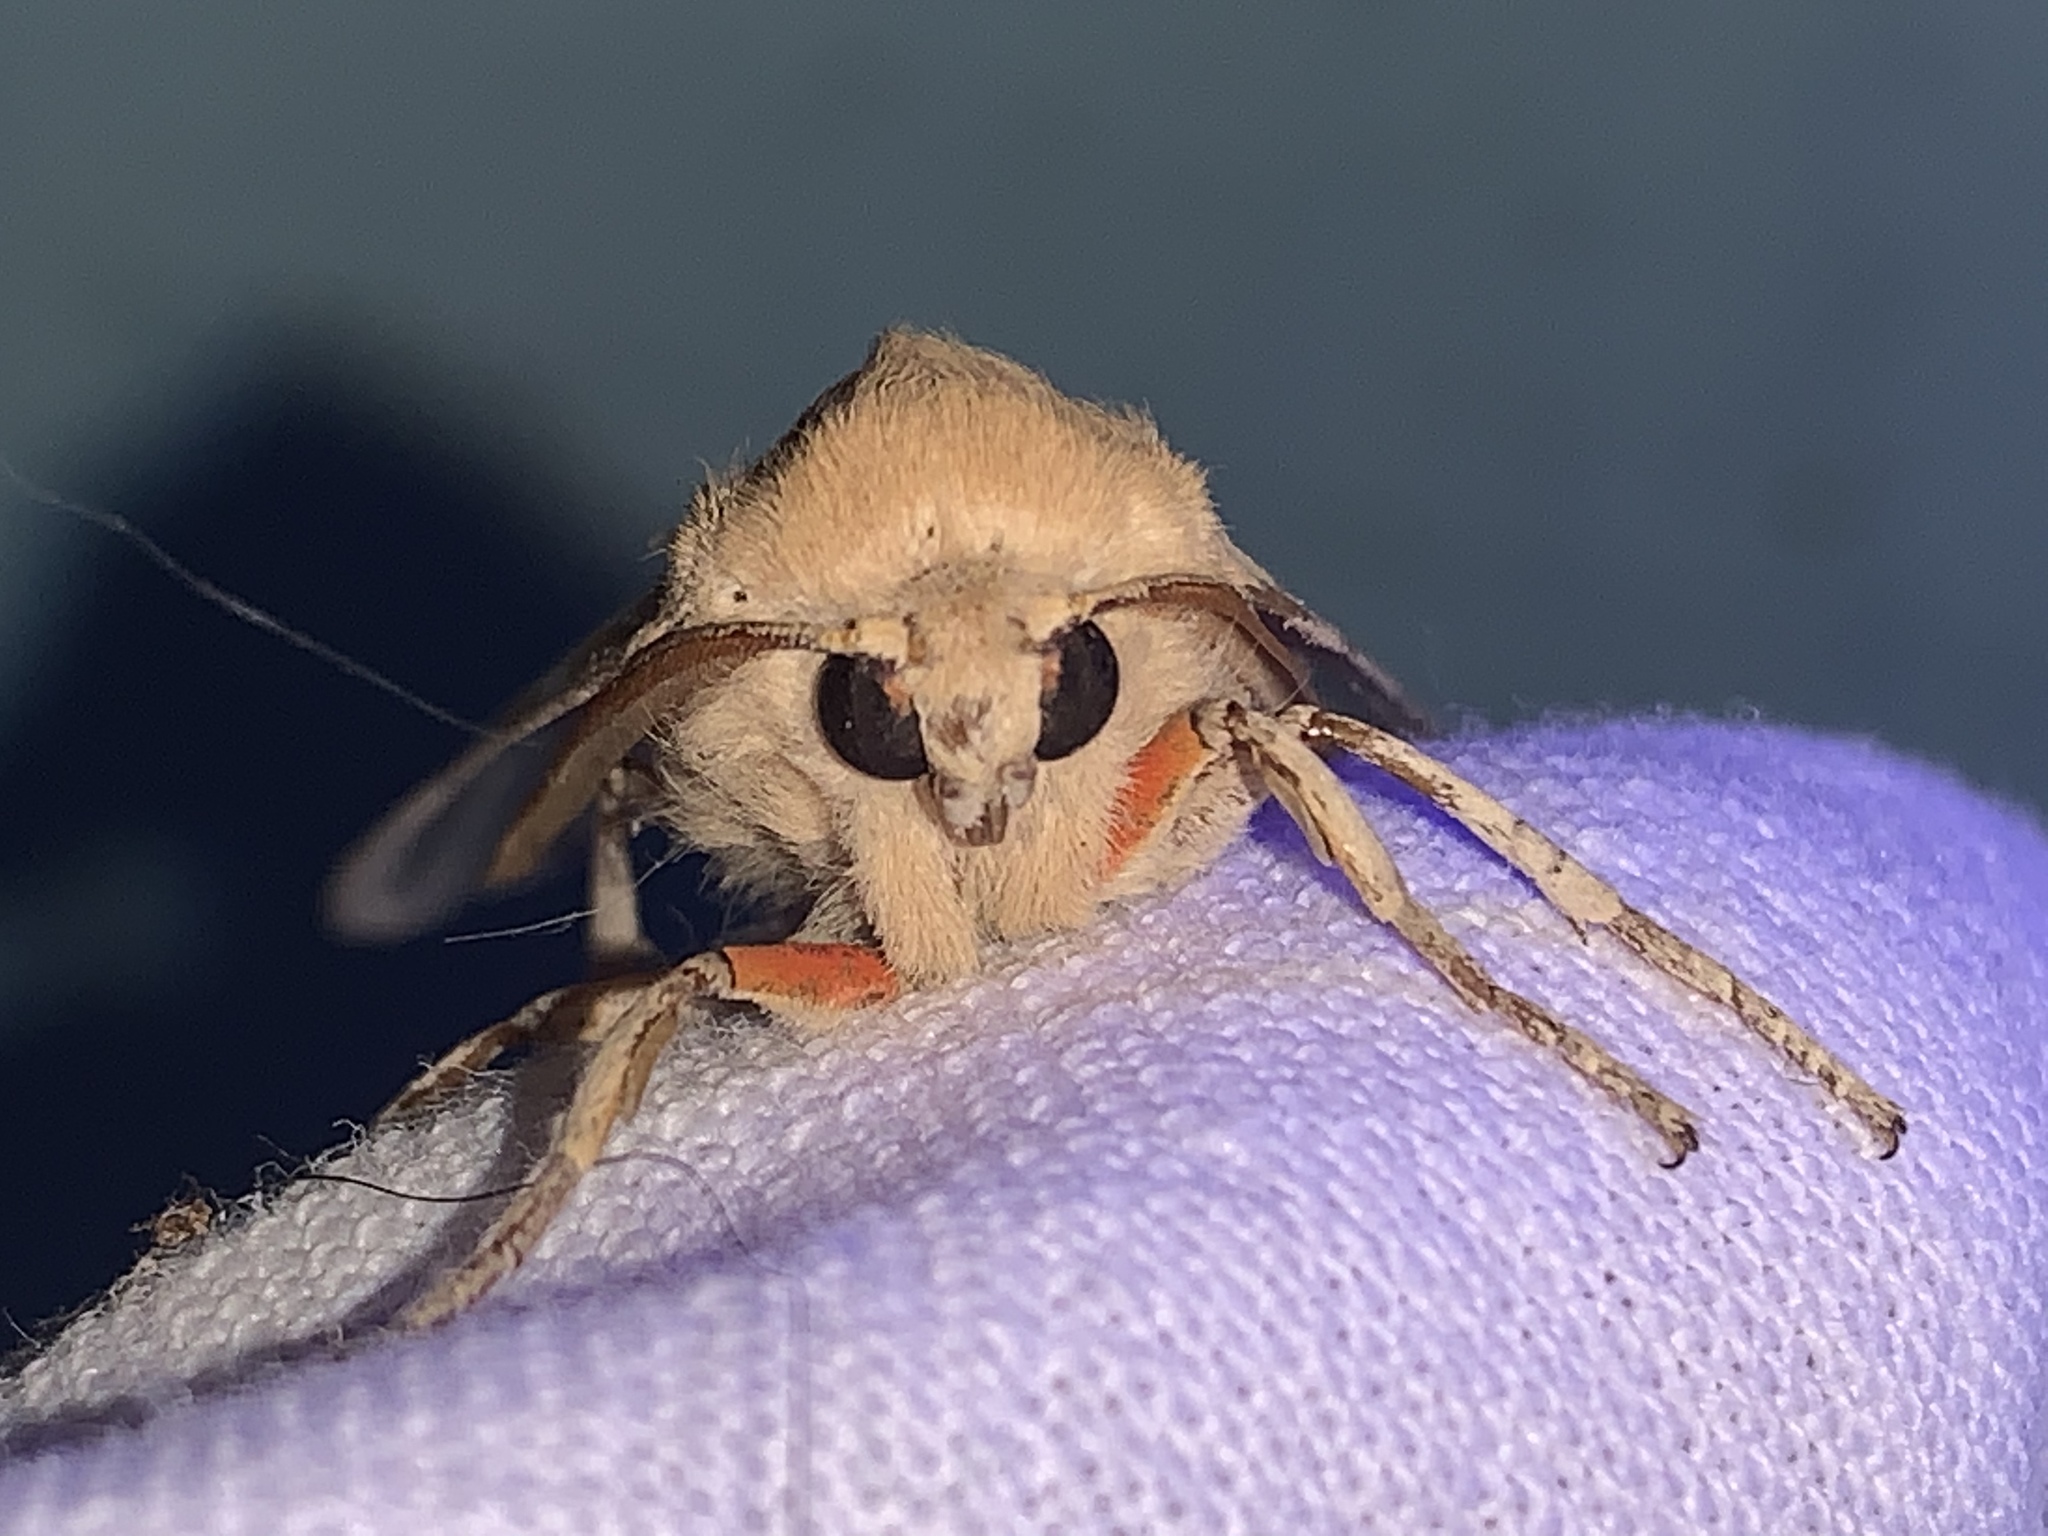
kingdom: Animalia
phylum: Arthropoda
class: Insecta
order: Lepidoptera
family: Erebidae
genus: Hemihyalea
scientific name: Hemihyalea edwardsii
